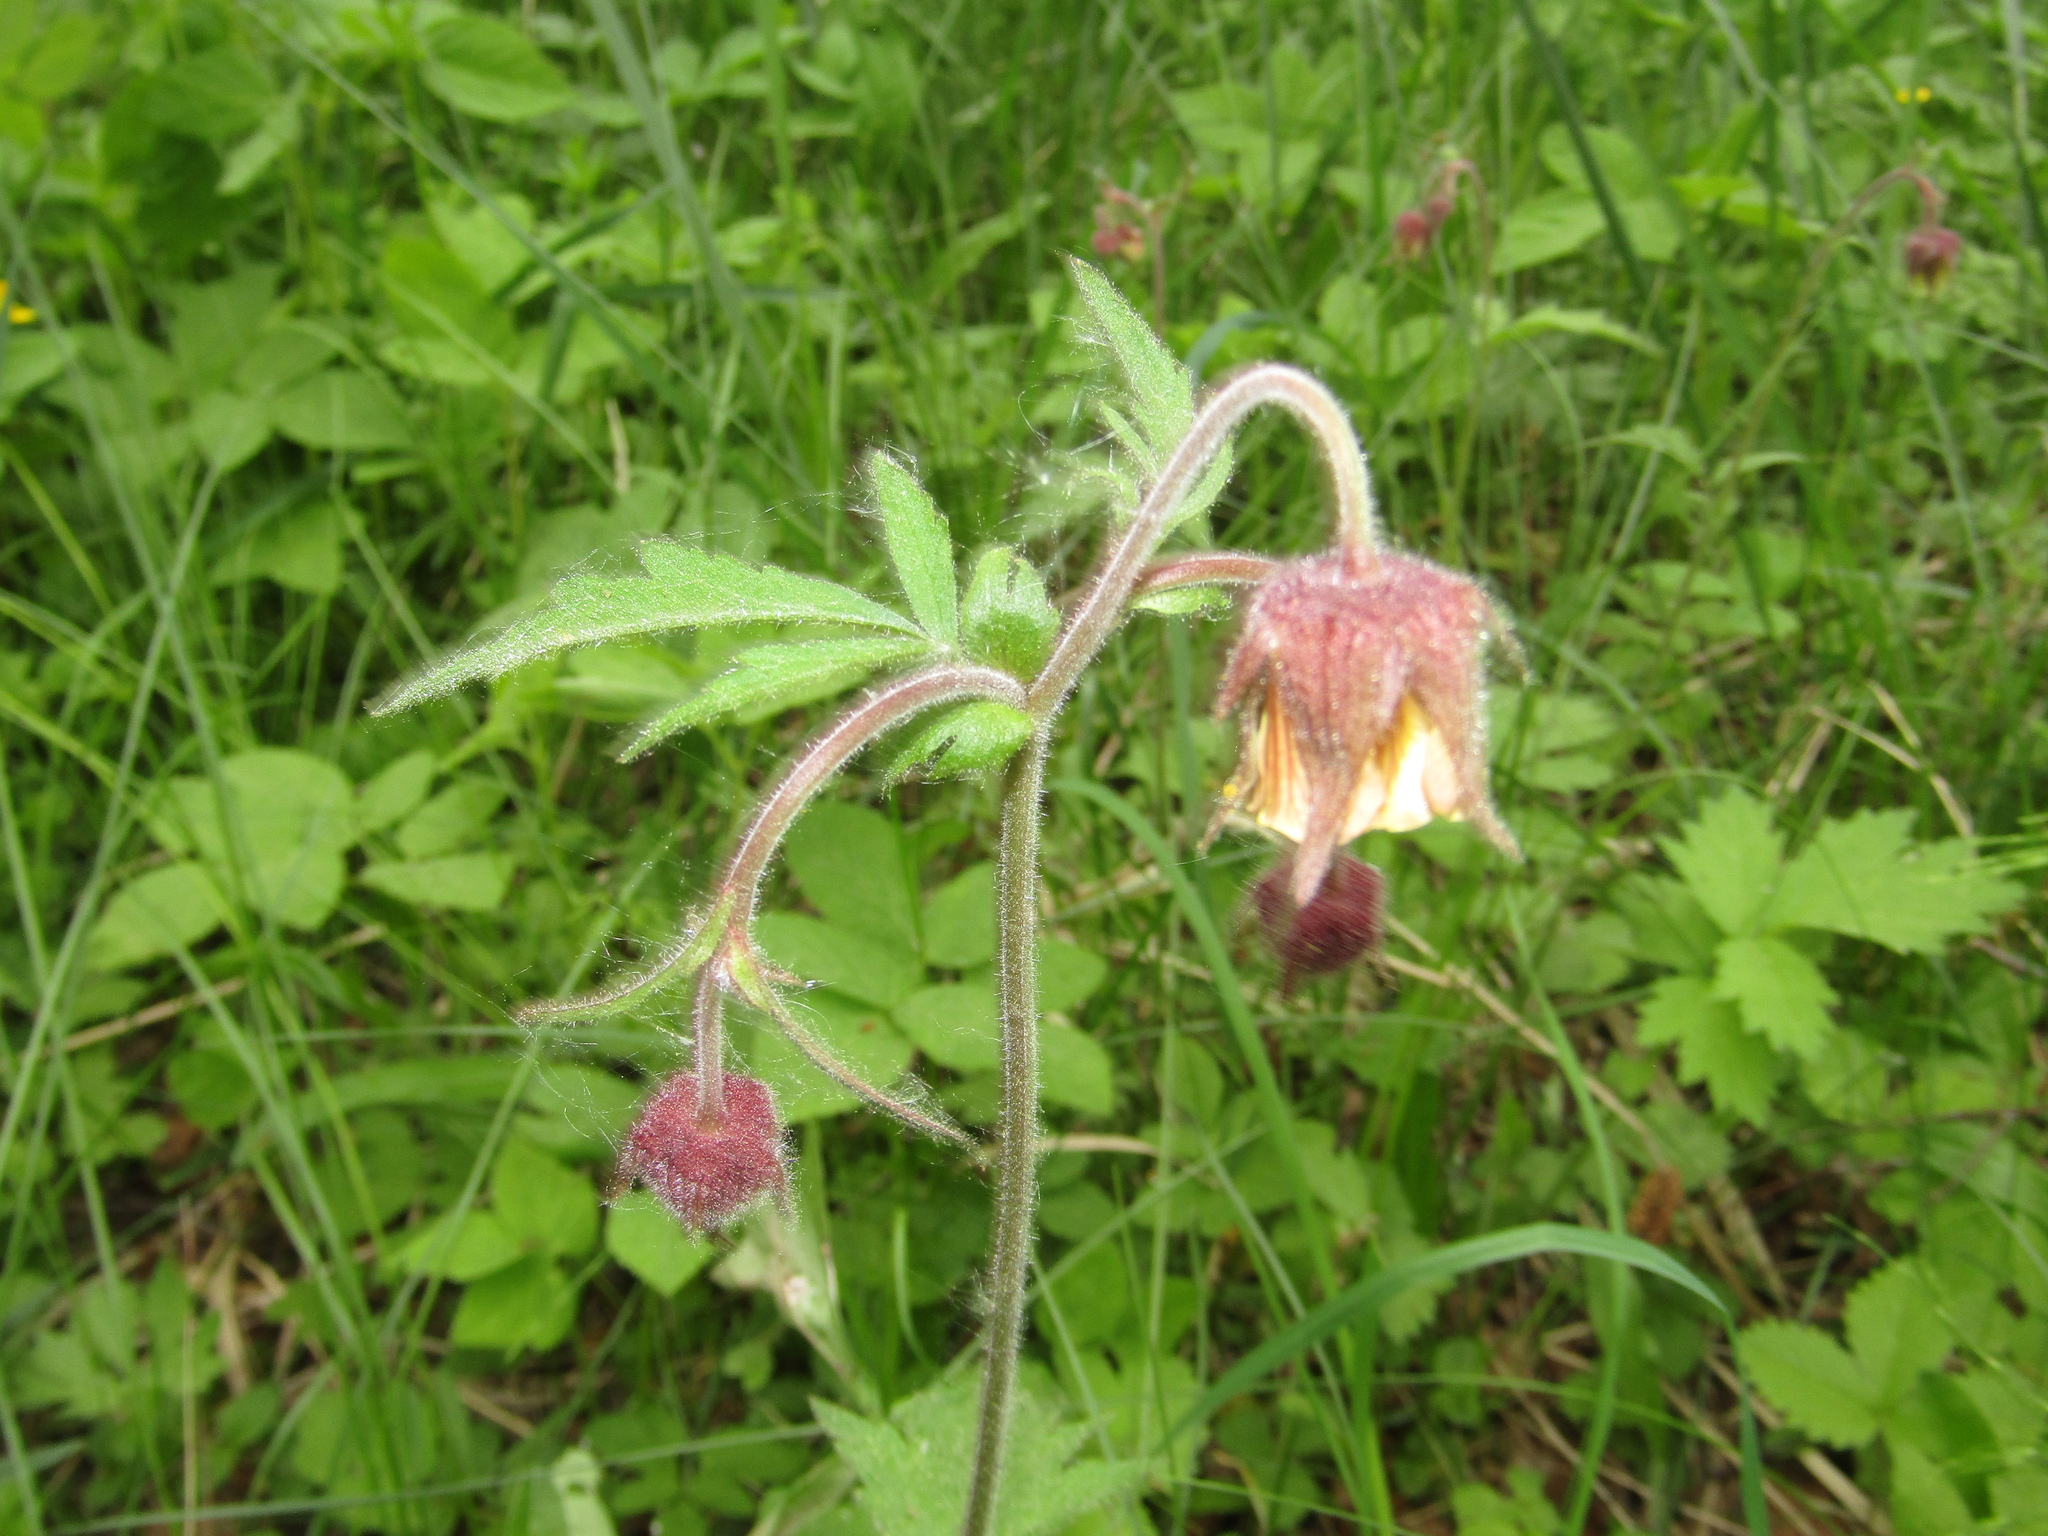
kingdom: Plantae
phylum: Tracheophyta
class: Magnoliopsida
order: Rosales
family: Rosaceae
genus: Geum
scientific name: Geum rivale
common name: Water avens
